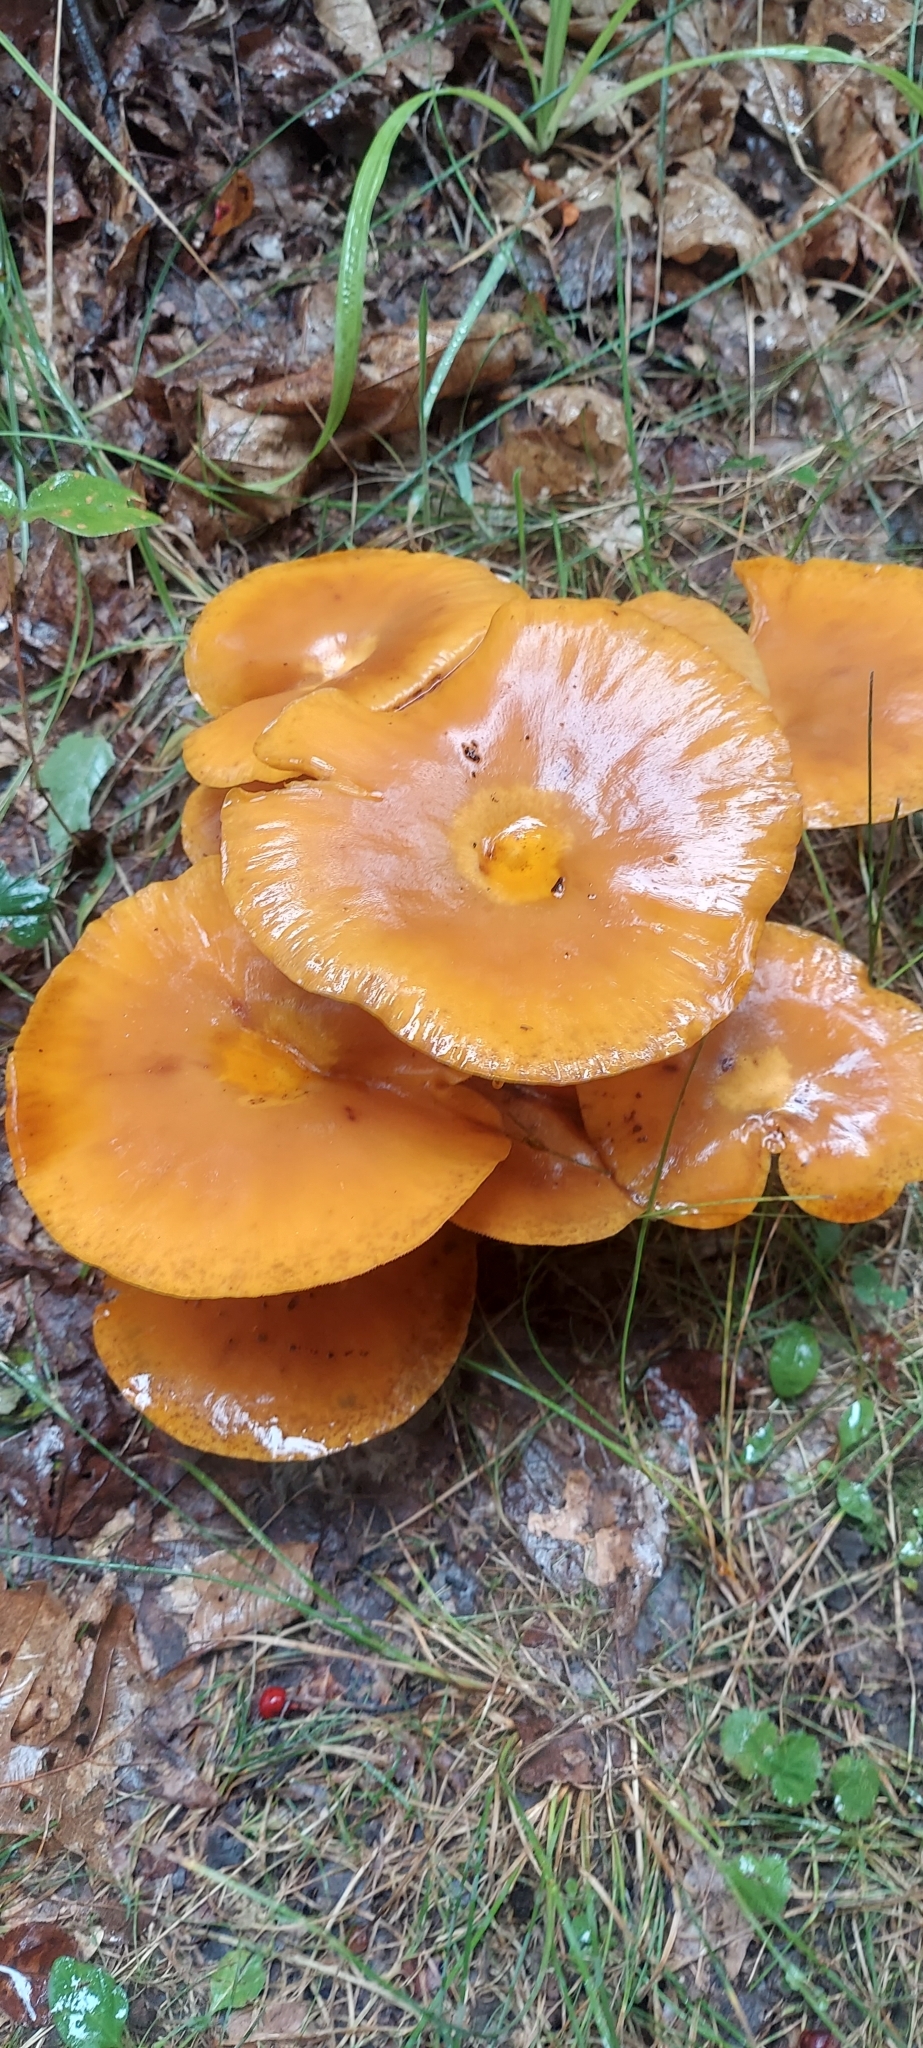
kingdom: Fungi
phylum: Basidiomycota
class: Agaricomycetes
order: Agaricales
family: Omphalotaceae
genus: Omphalotus
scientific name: Omphalotus illudens
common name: Jack o lantern
